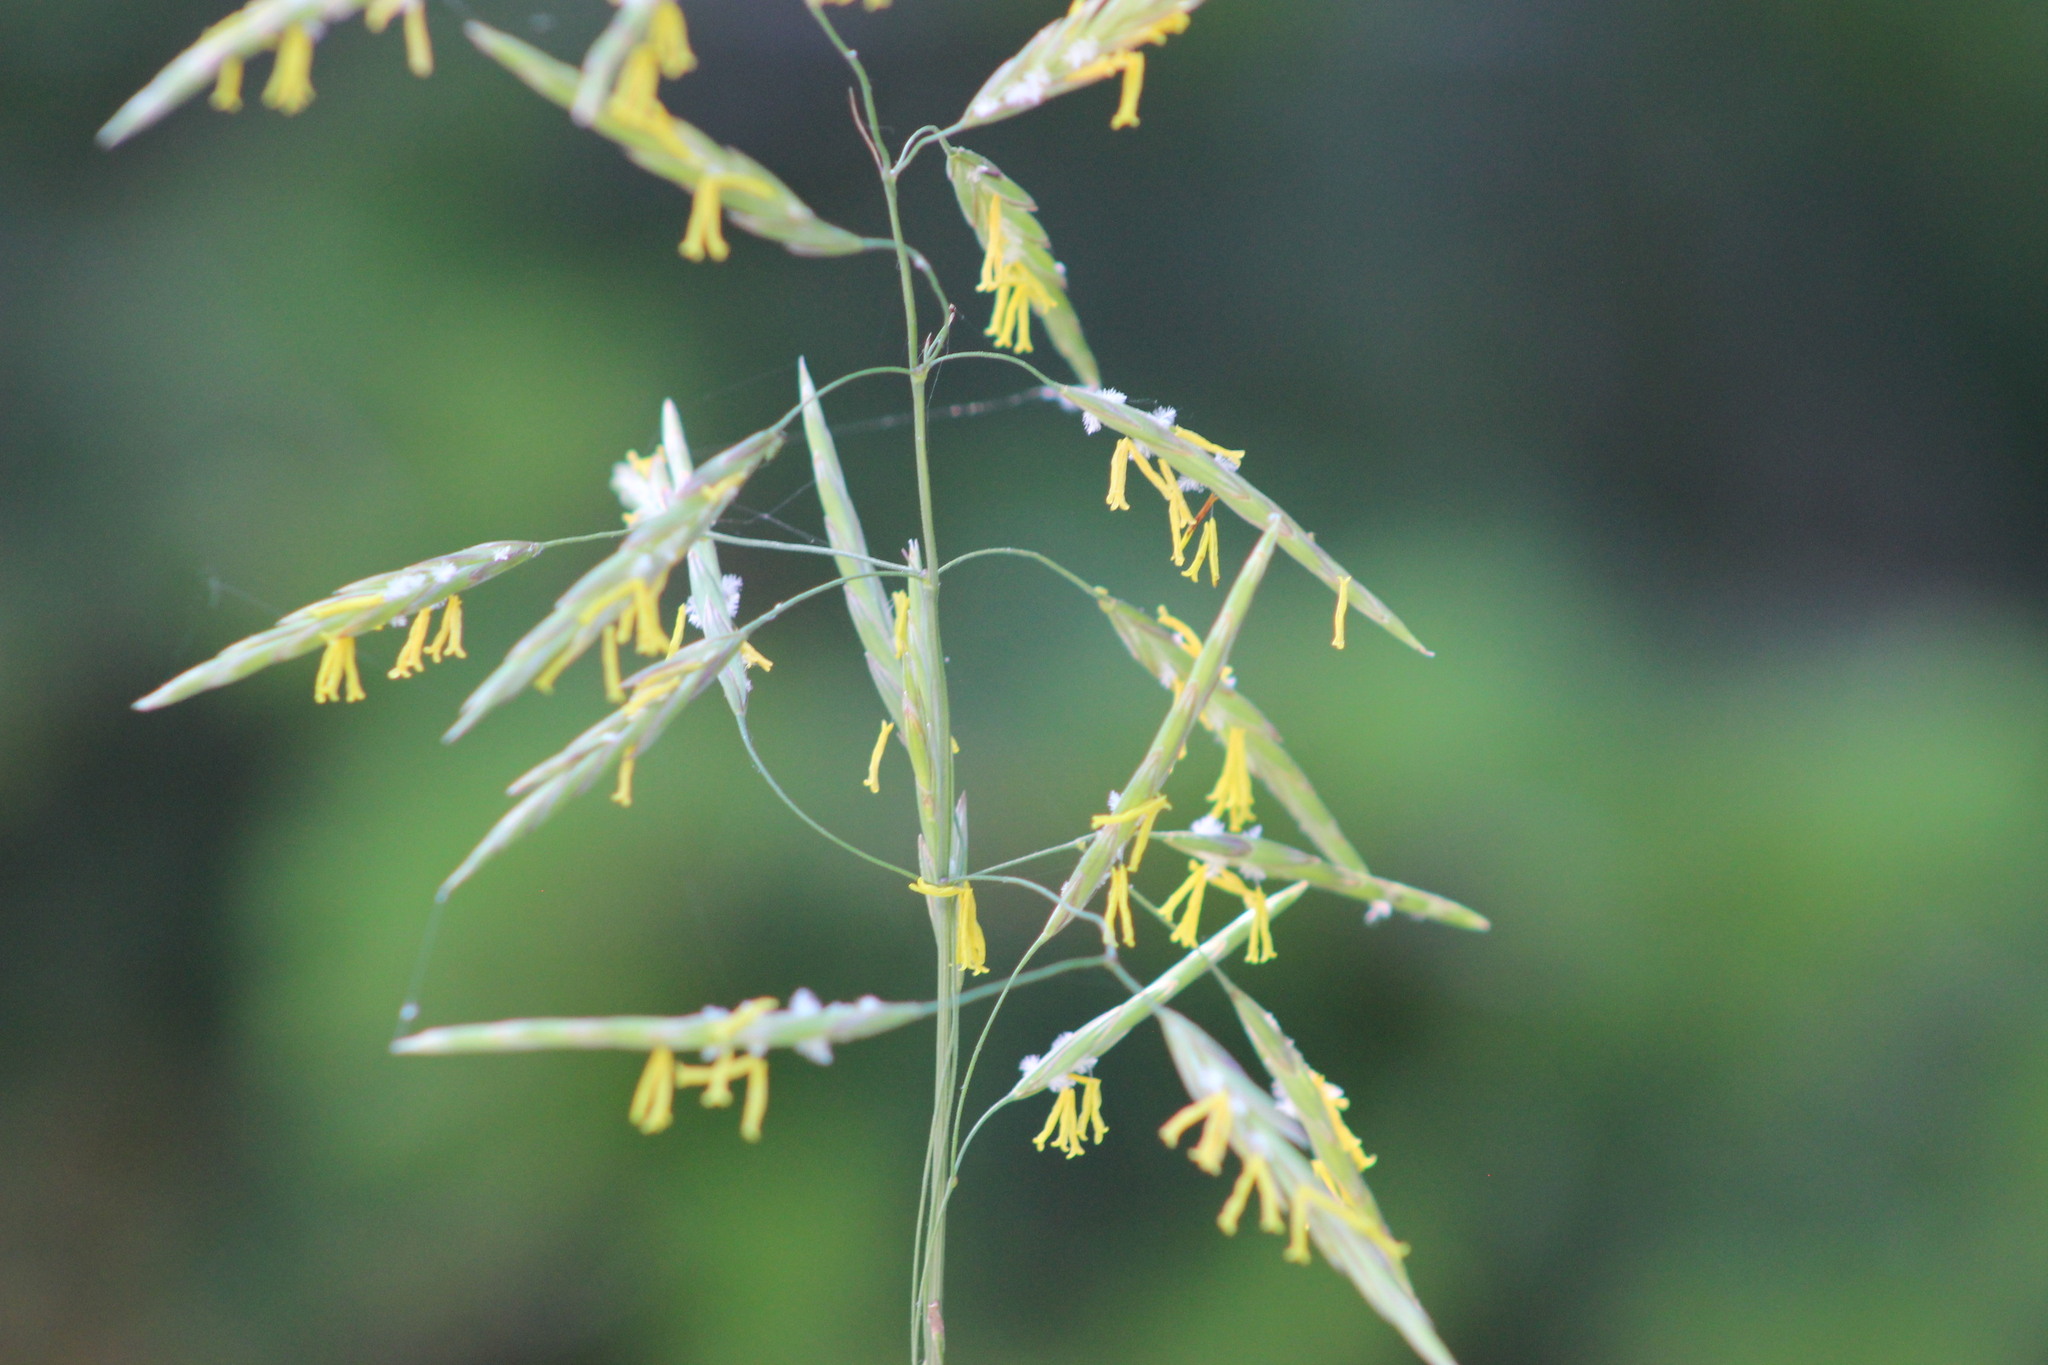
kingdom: Plantae
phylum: Tracheophyta
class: Liliopsida
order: Poales
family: Poaceae
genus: Bromus
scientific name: Bromus inermis
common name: Smooth brome
